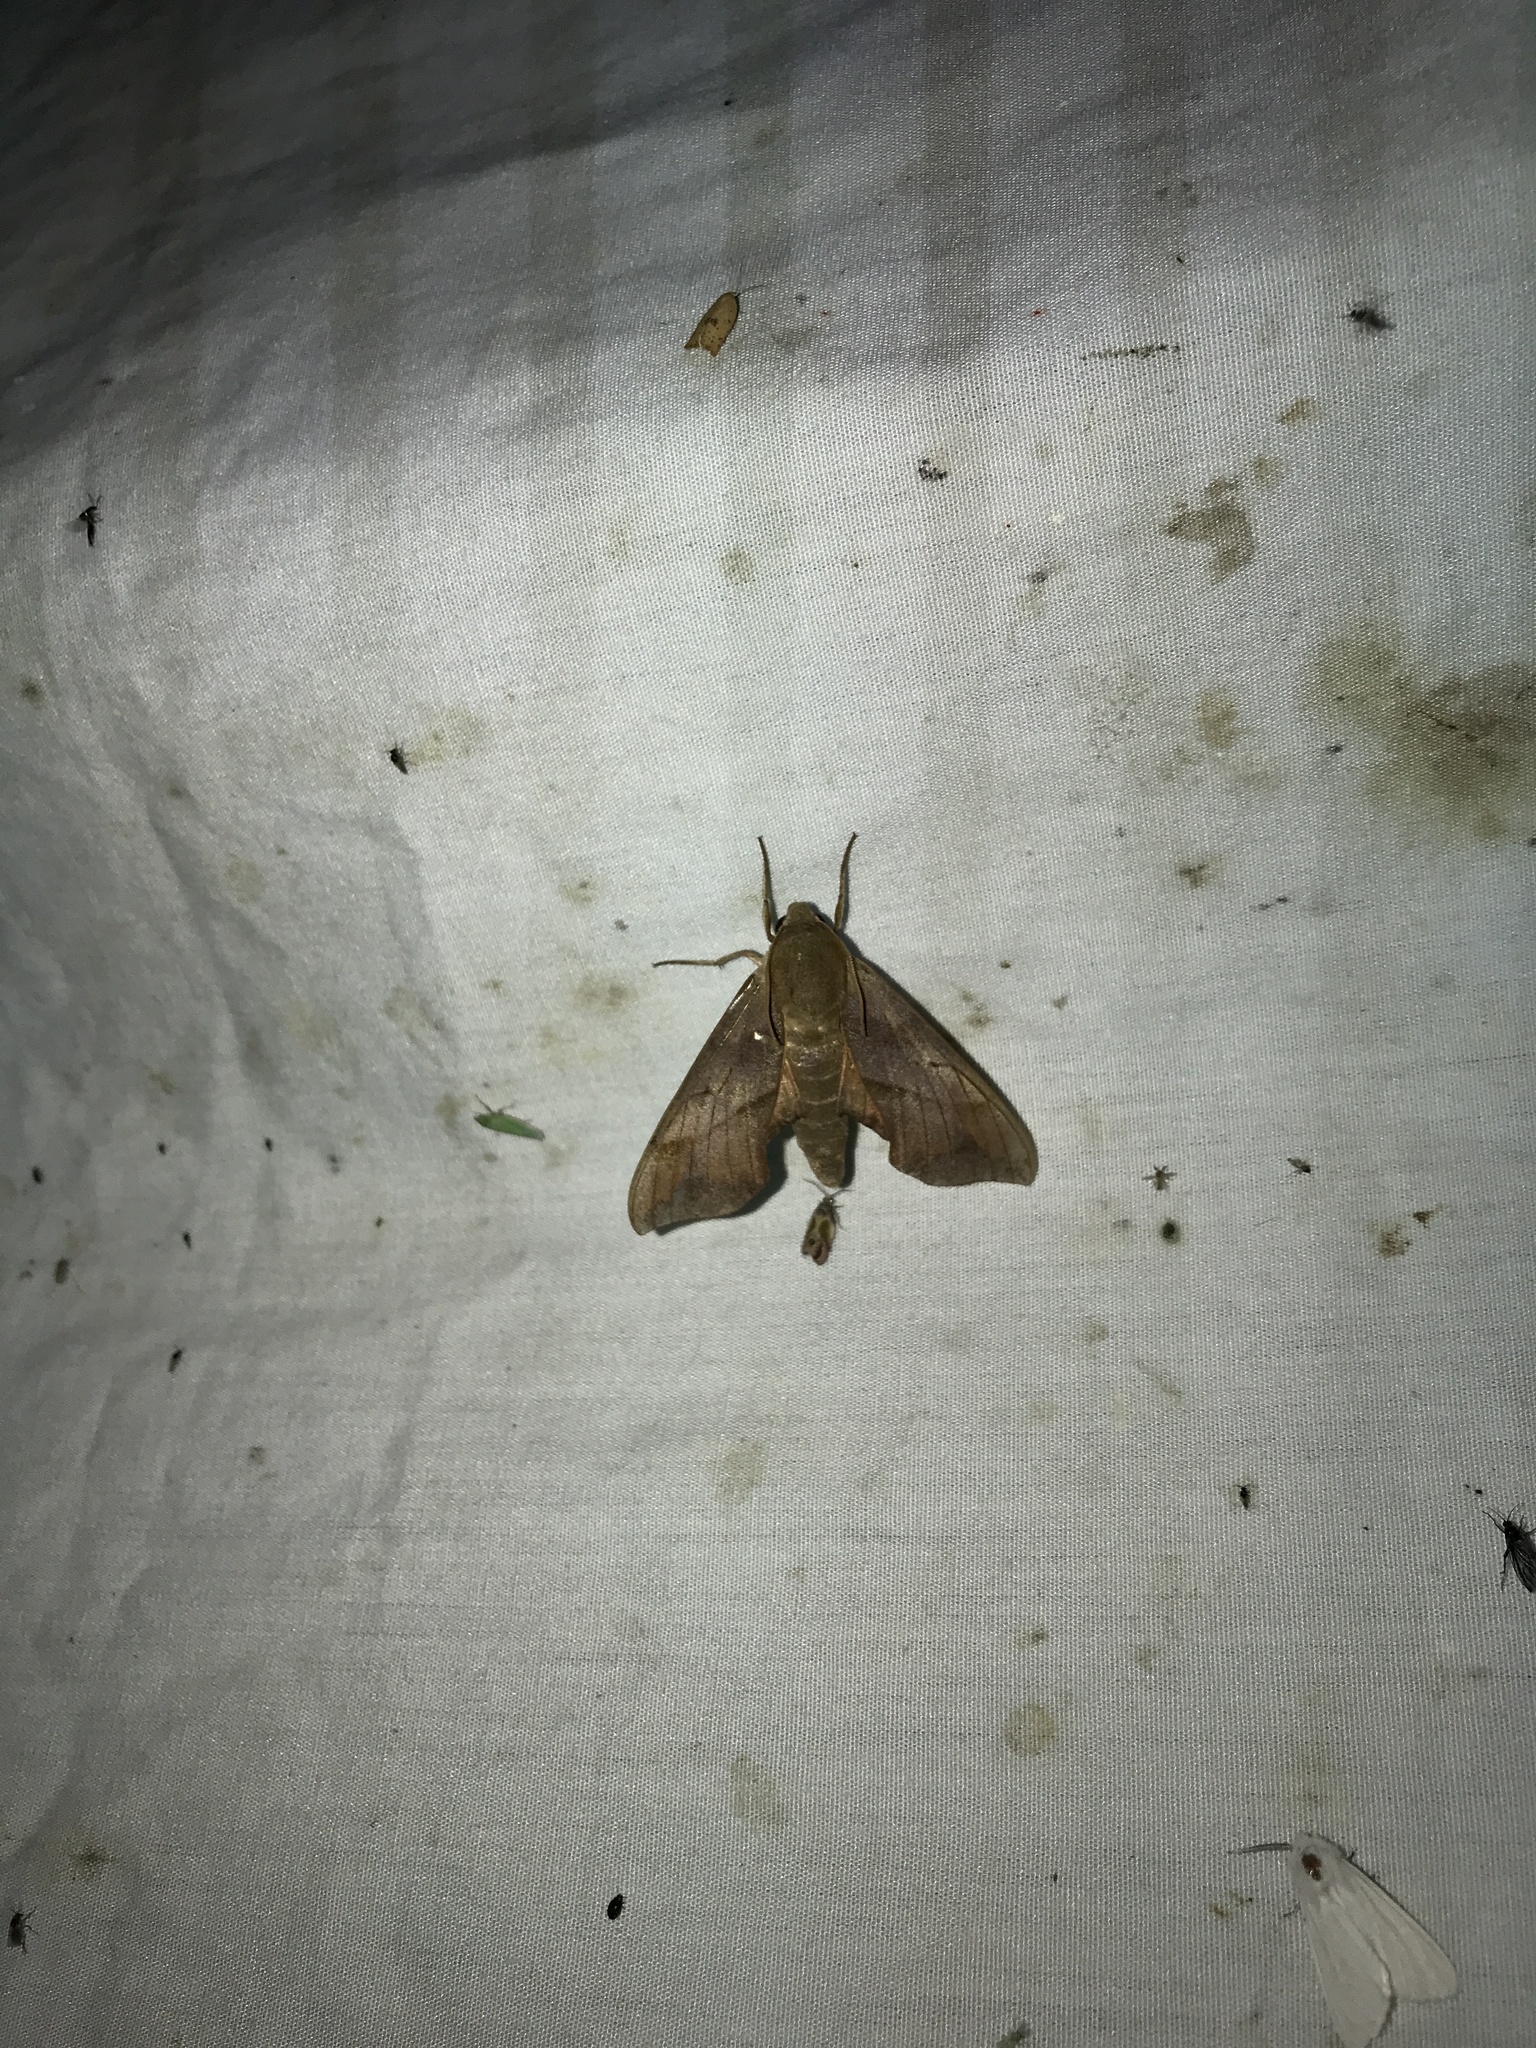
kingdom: Animalia
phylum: Arthropoda
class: Insecta
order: Lepidoptera
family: Sphingidae
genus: Darapsa
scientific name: Darapsa myron
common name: Hog sphinx
